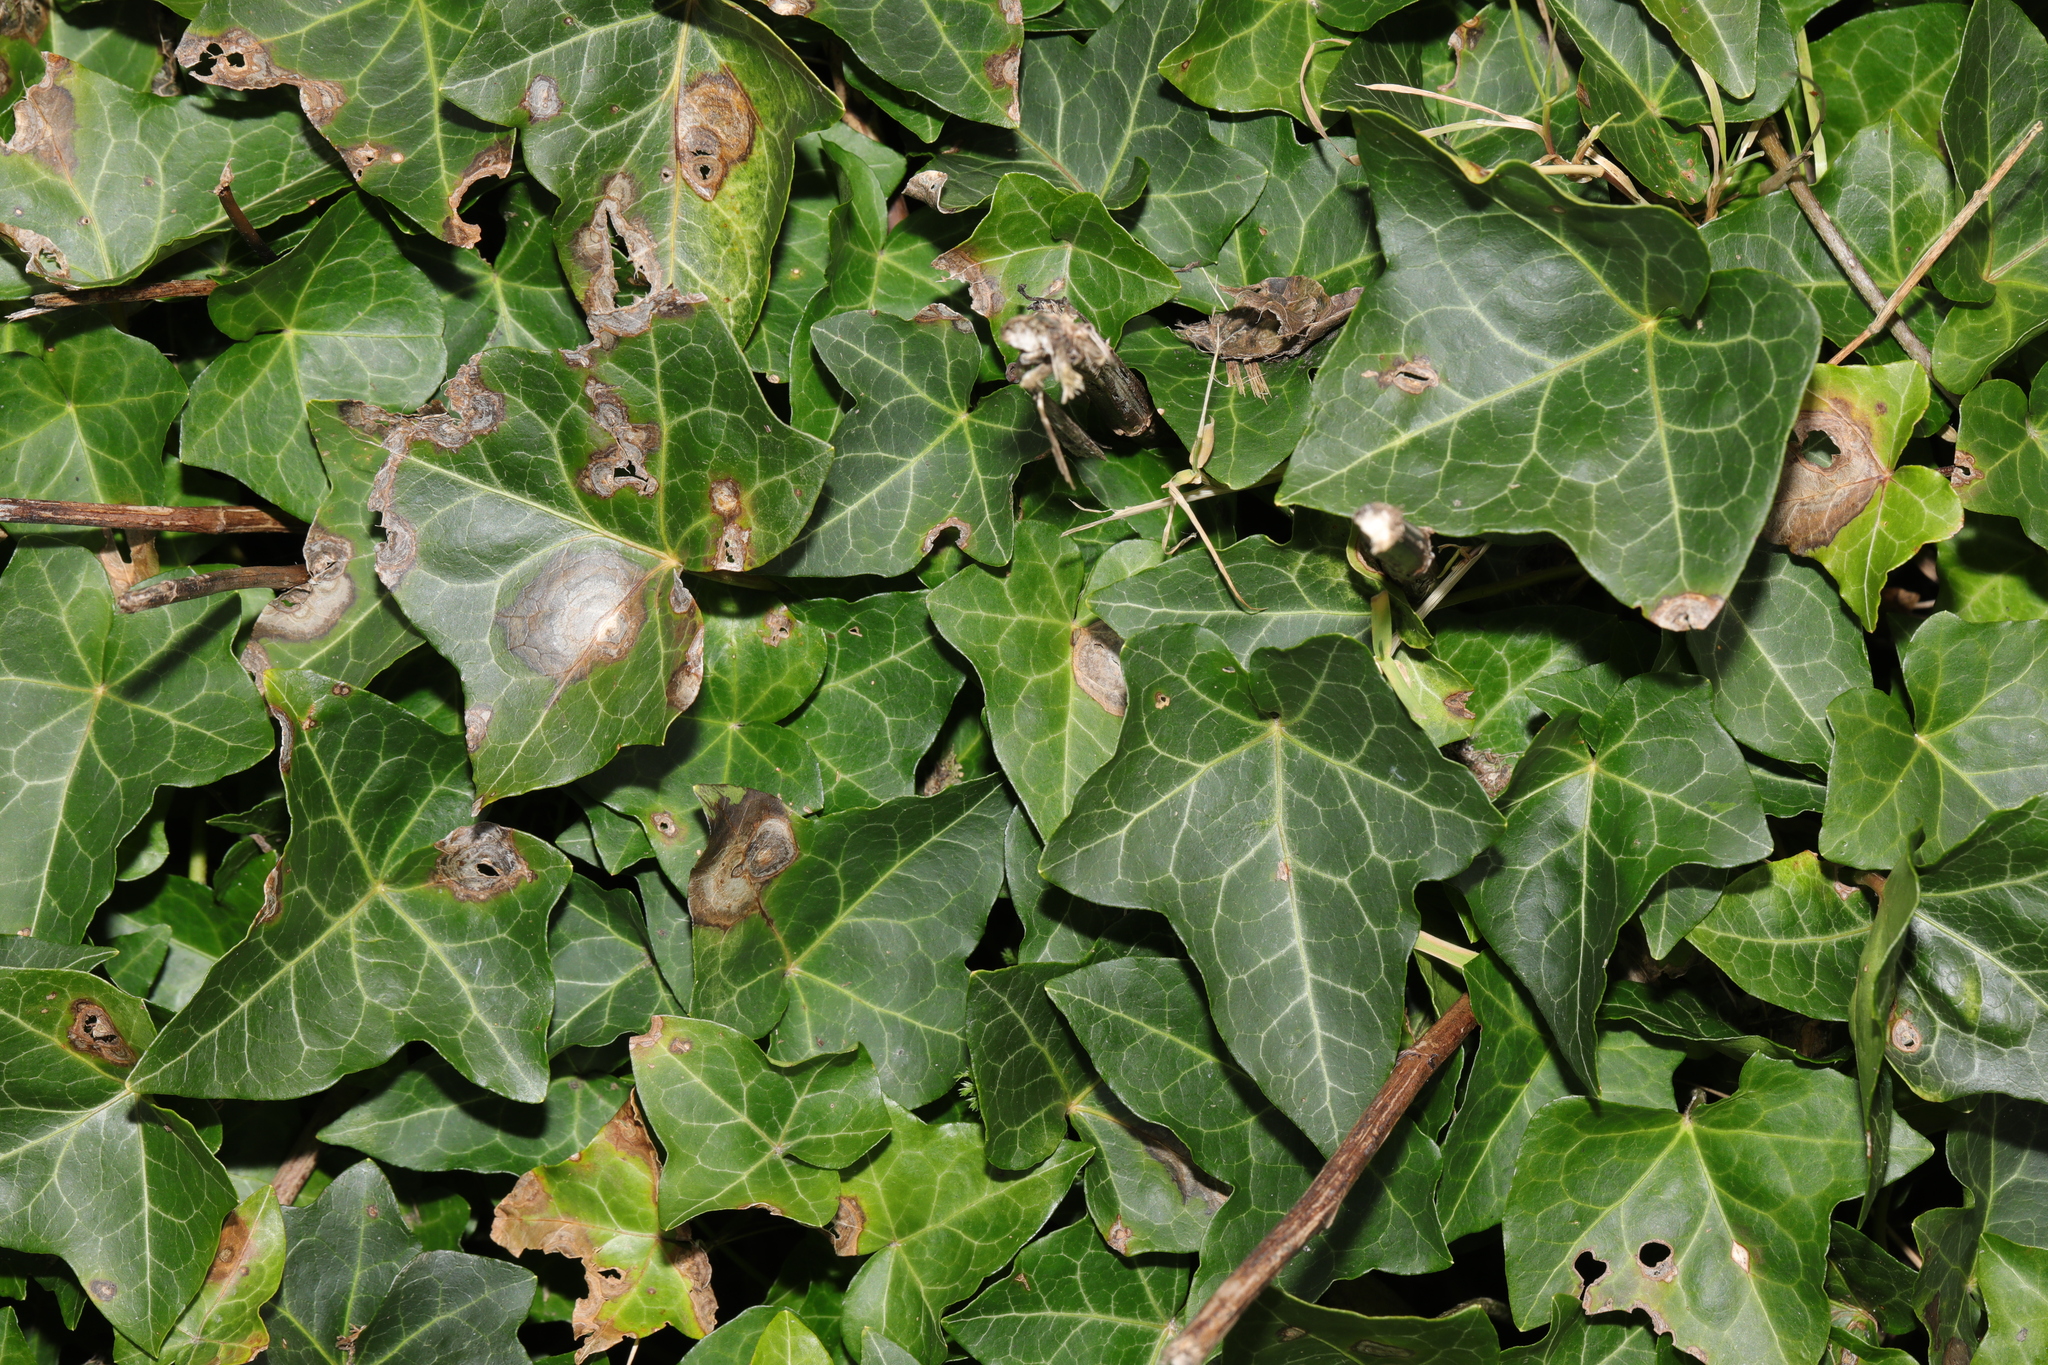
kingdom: Plantae
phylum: Tracheophyta
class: Magnoliopsida
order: Apiales
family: Araliaceae
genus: Hedera
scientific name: Hedera helix
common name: Ivy
